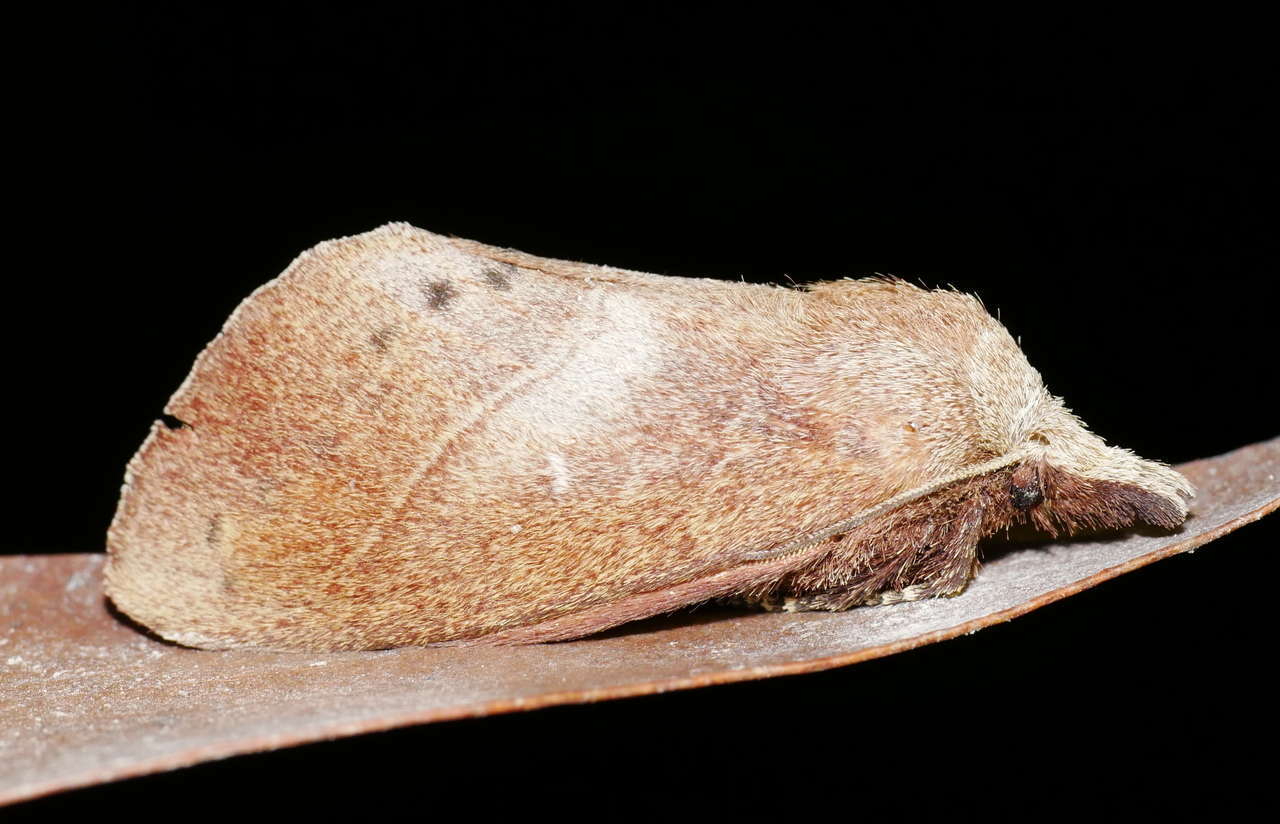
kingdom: Animalia
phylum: Arthropoda
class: Insecta
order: Lepidoptera
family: Lasiocampidae
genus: Opsirhina
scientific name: Opsirhina albigutta
